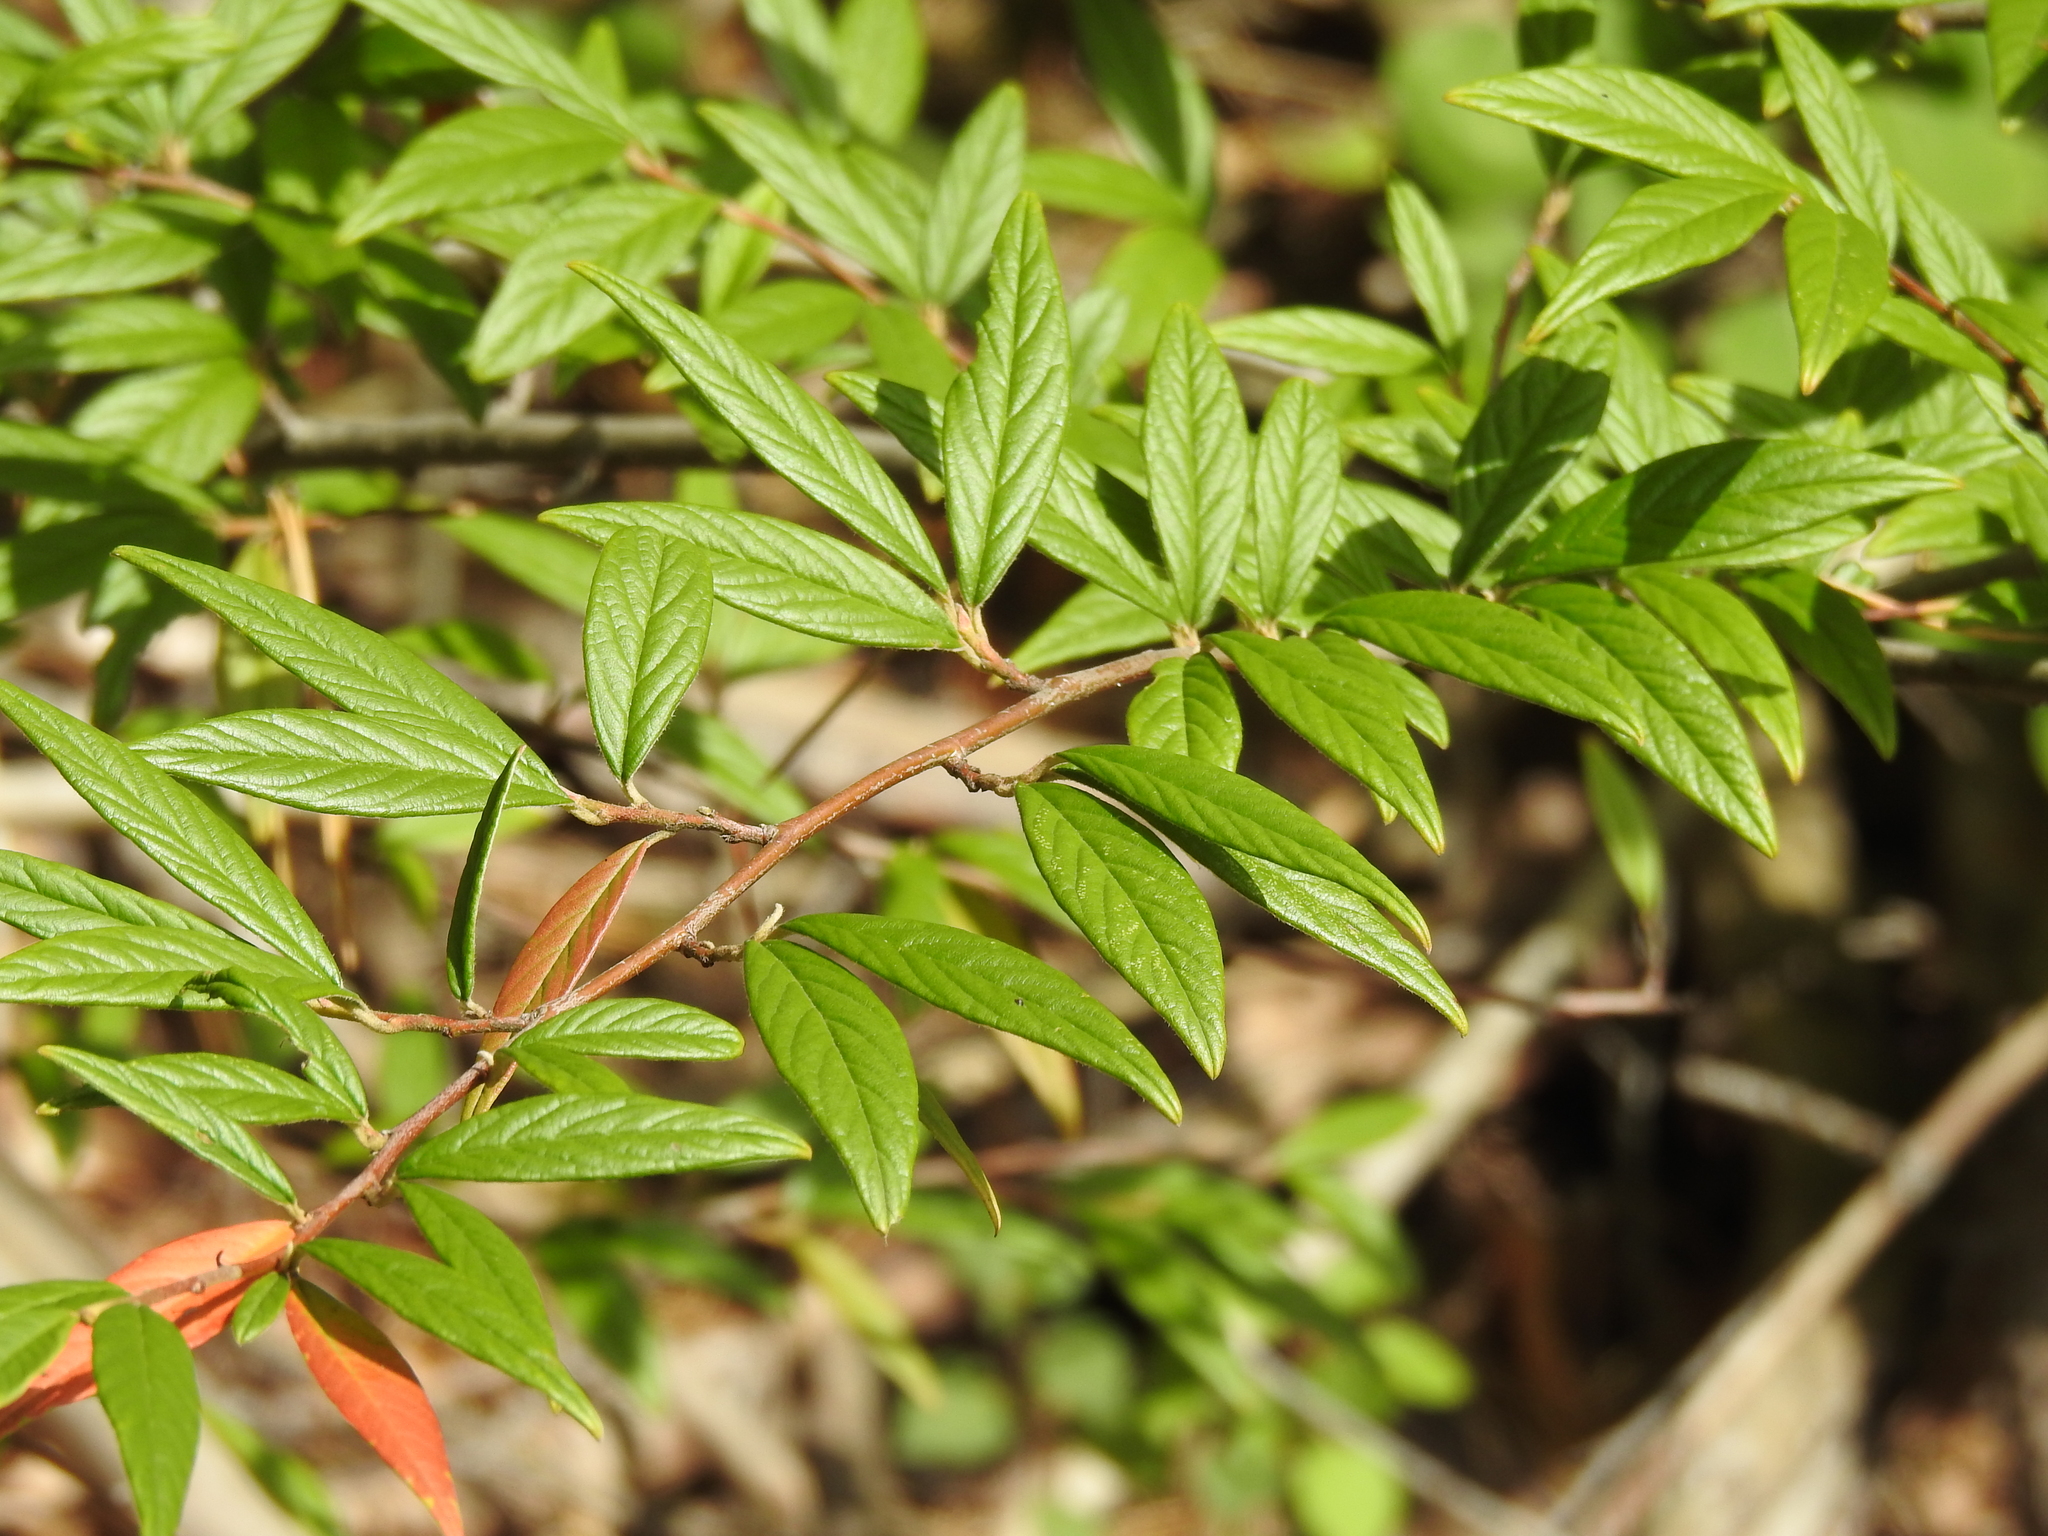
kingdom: Plantae
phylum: Tracheophyta
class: Magnoliopsida
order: Rosales
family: Rosaceae
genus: Cotoneaster
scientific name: Cotoneaster salicifolius
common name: Willow-leaved cotoneaster
